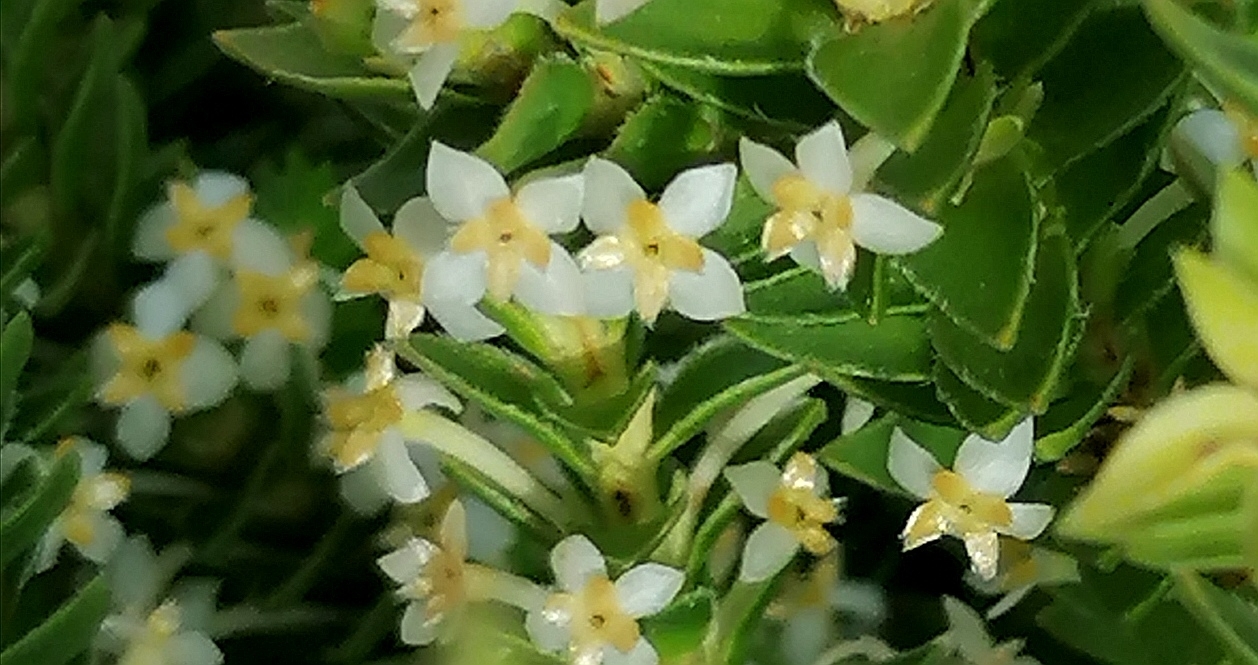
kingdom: Plantae
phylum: Tracheophyta
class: Magnoliopsida
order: Malvales
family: Thymelaeaceae
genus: Struthiola
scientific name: Struthiola striata
